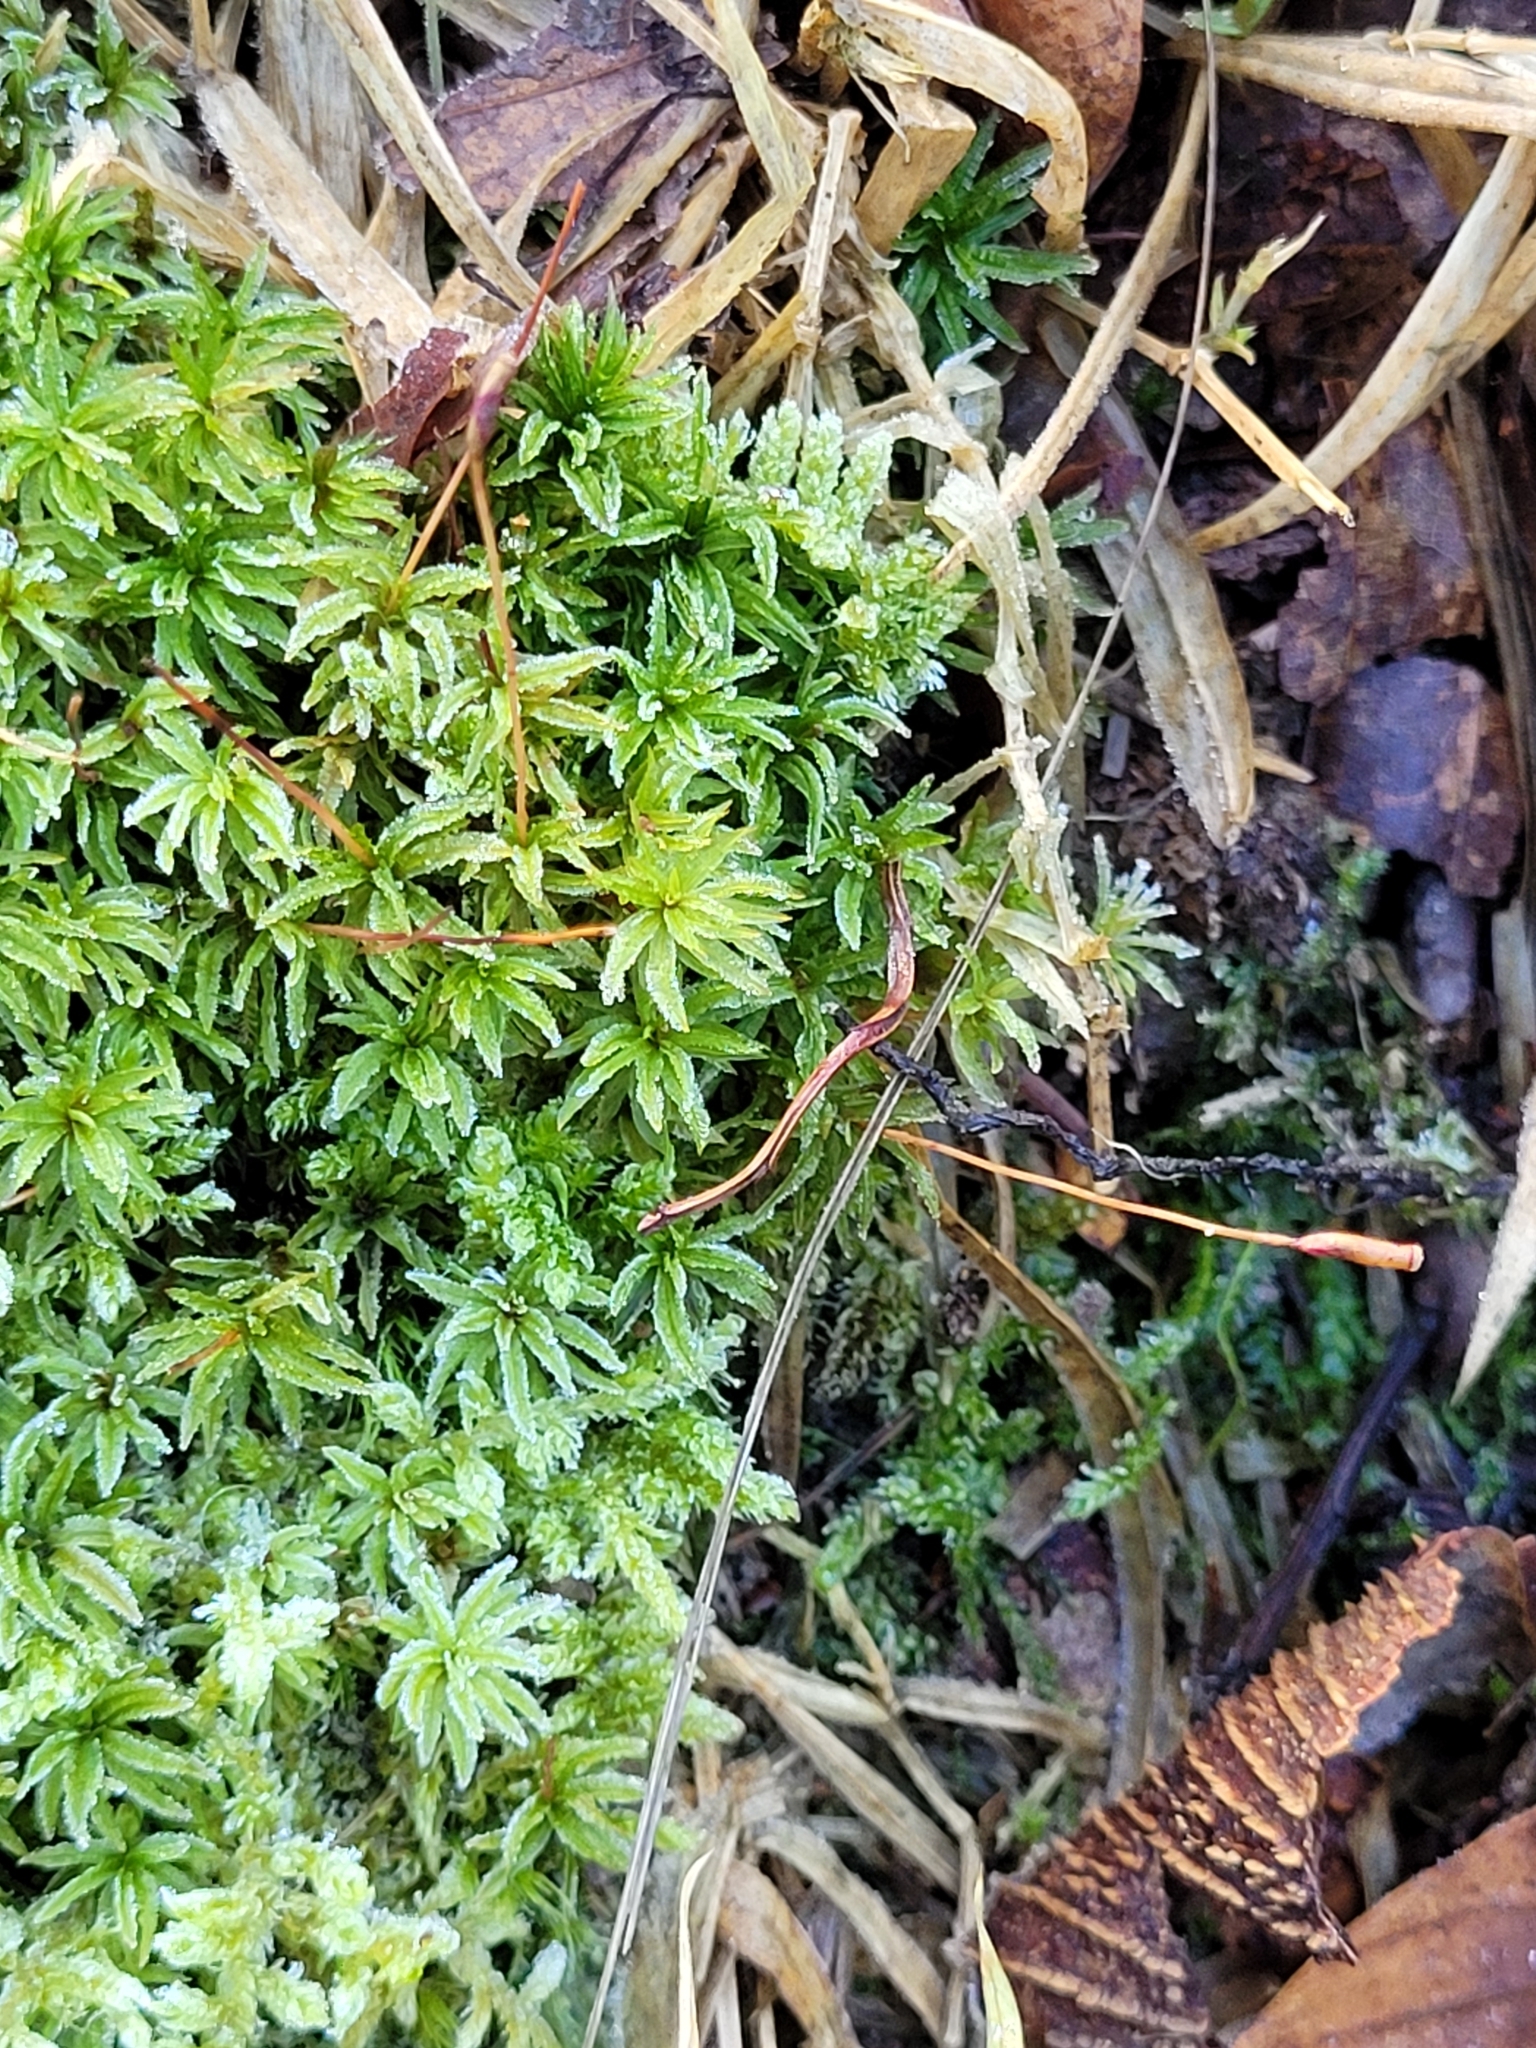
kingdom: Plantae
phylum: Bryophyta
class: Polytrichopsida
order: Polytrichales
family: Polytrichaceae
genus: Atrichum
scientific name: Atrichum undulatum
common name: Common smoothcap
